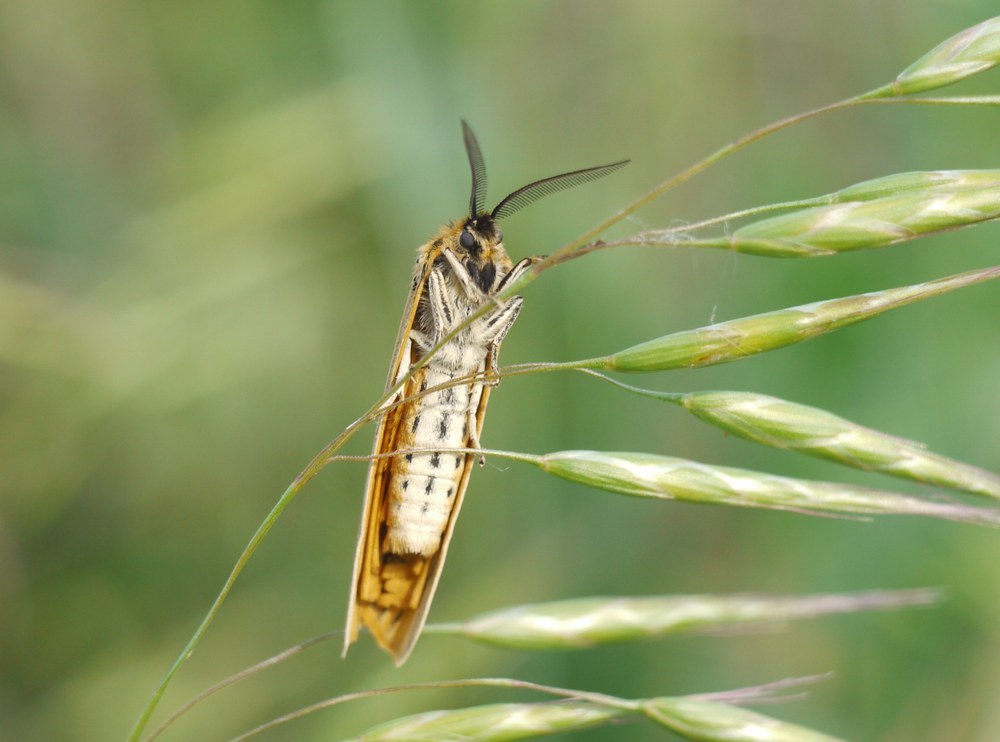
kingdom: Animalia
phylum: Arthropoda
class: Insecta
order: Lepidoptera
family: Erebidae
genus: Coscinia
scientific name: Coscinia Spiris striata
